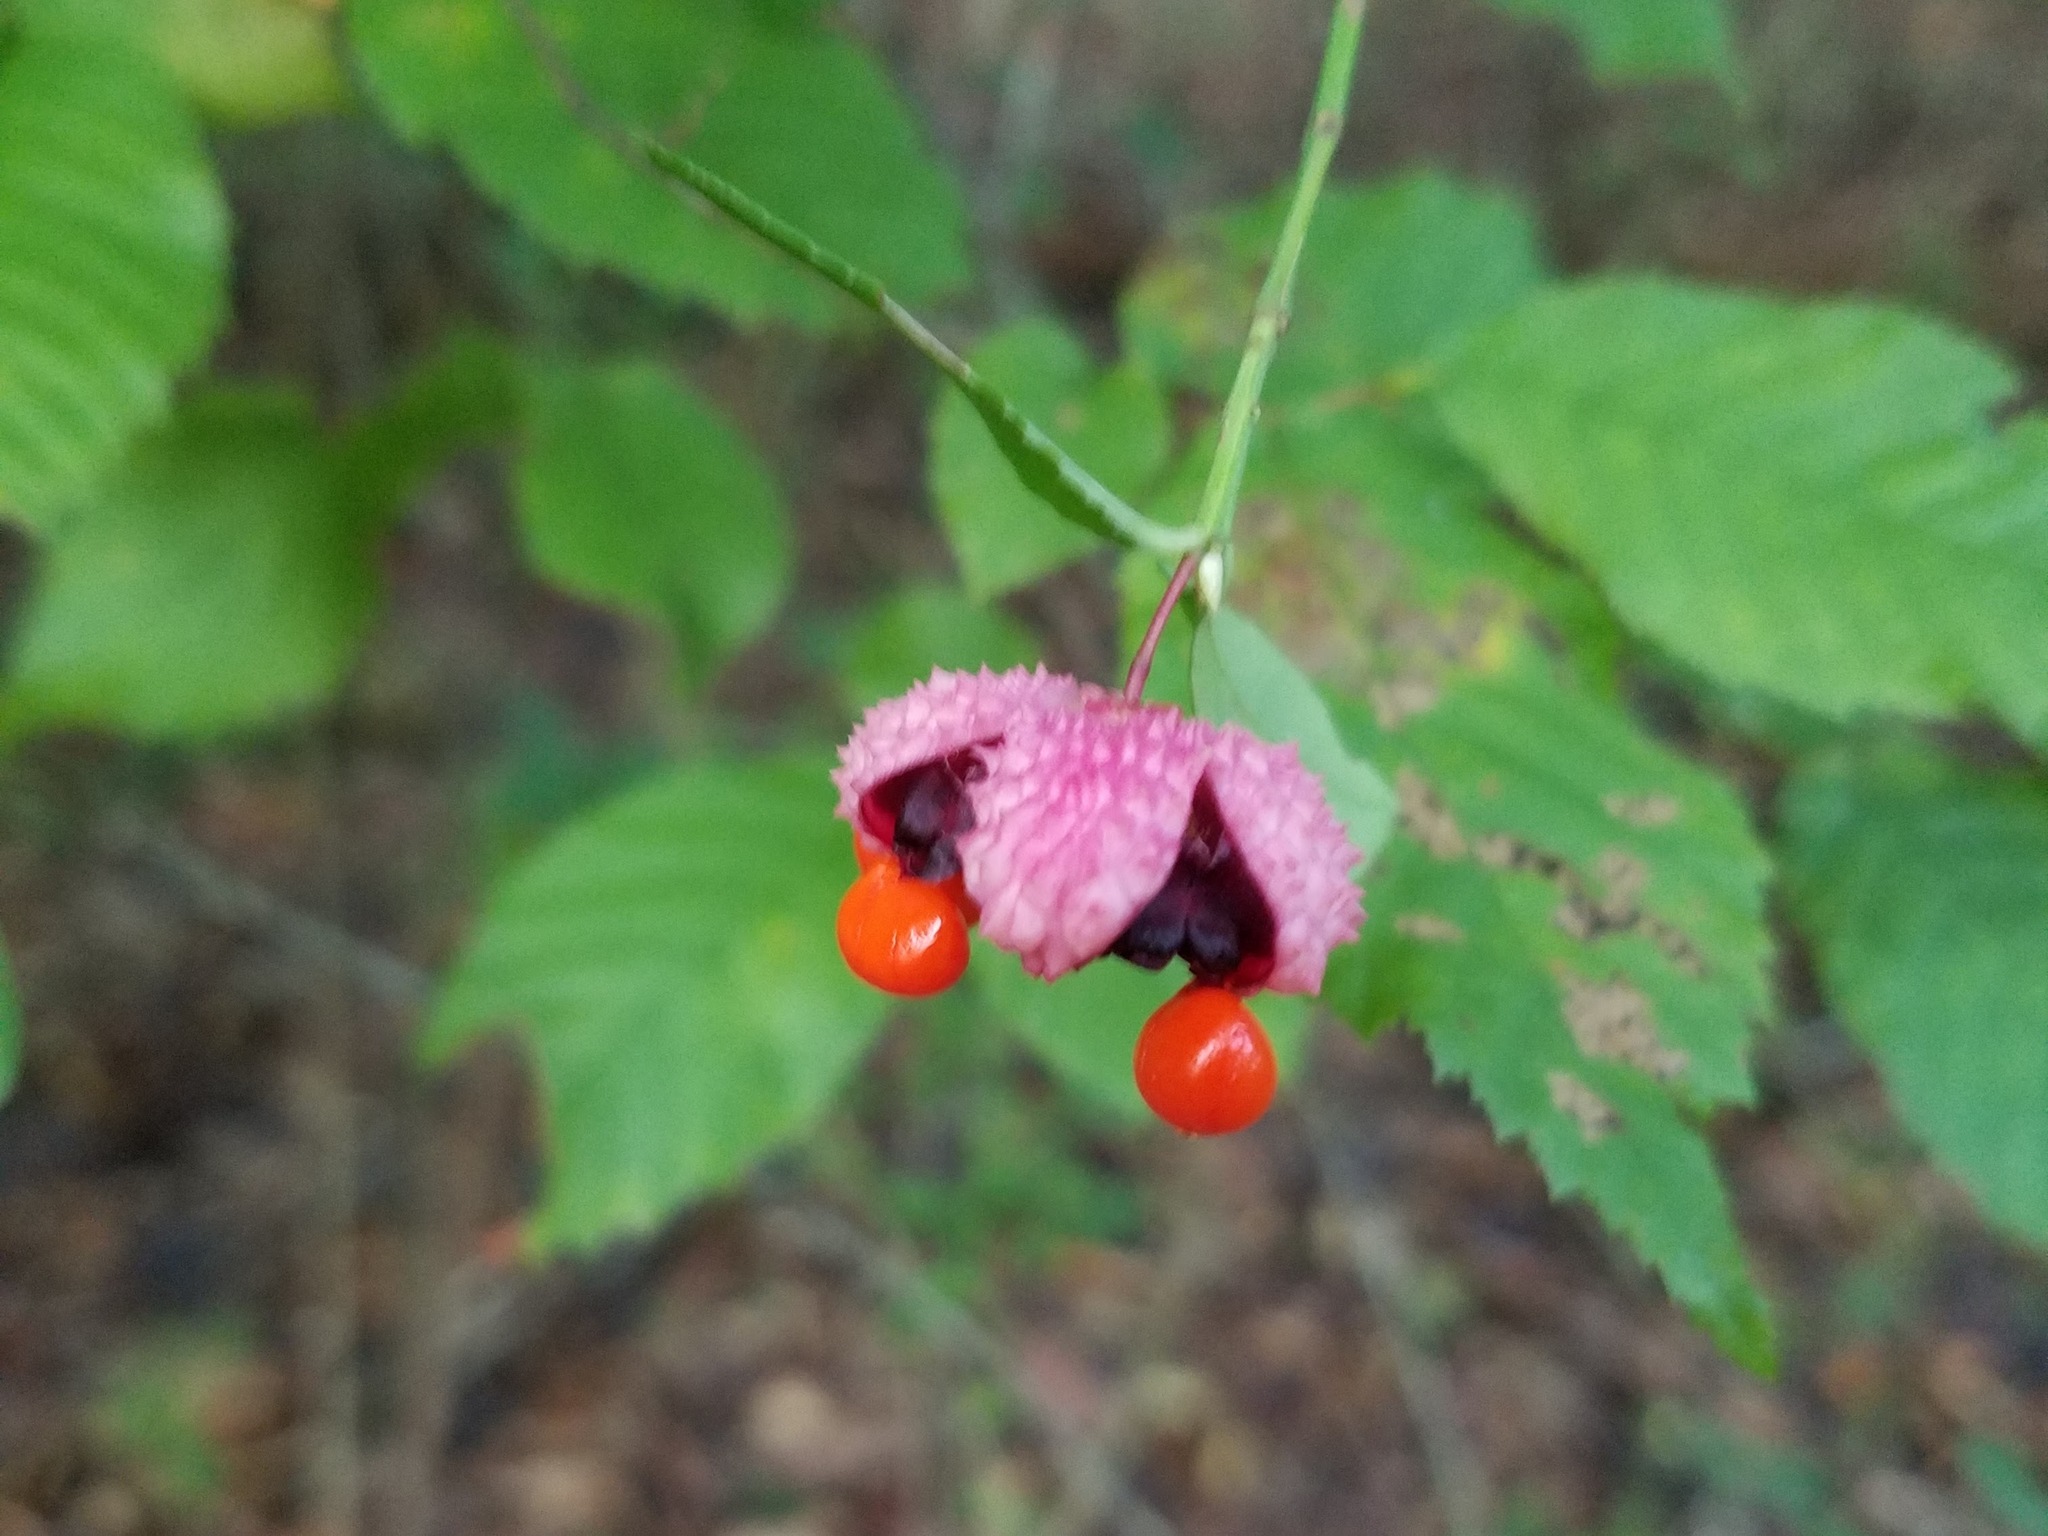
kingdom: Plantae
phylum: Tracheophyta
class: Magnoliopsida
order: Celastrales
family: Celastraceae
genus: Euonymus
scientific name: Euonymus americanus
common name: Bursting-heart
